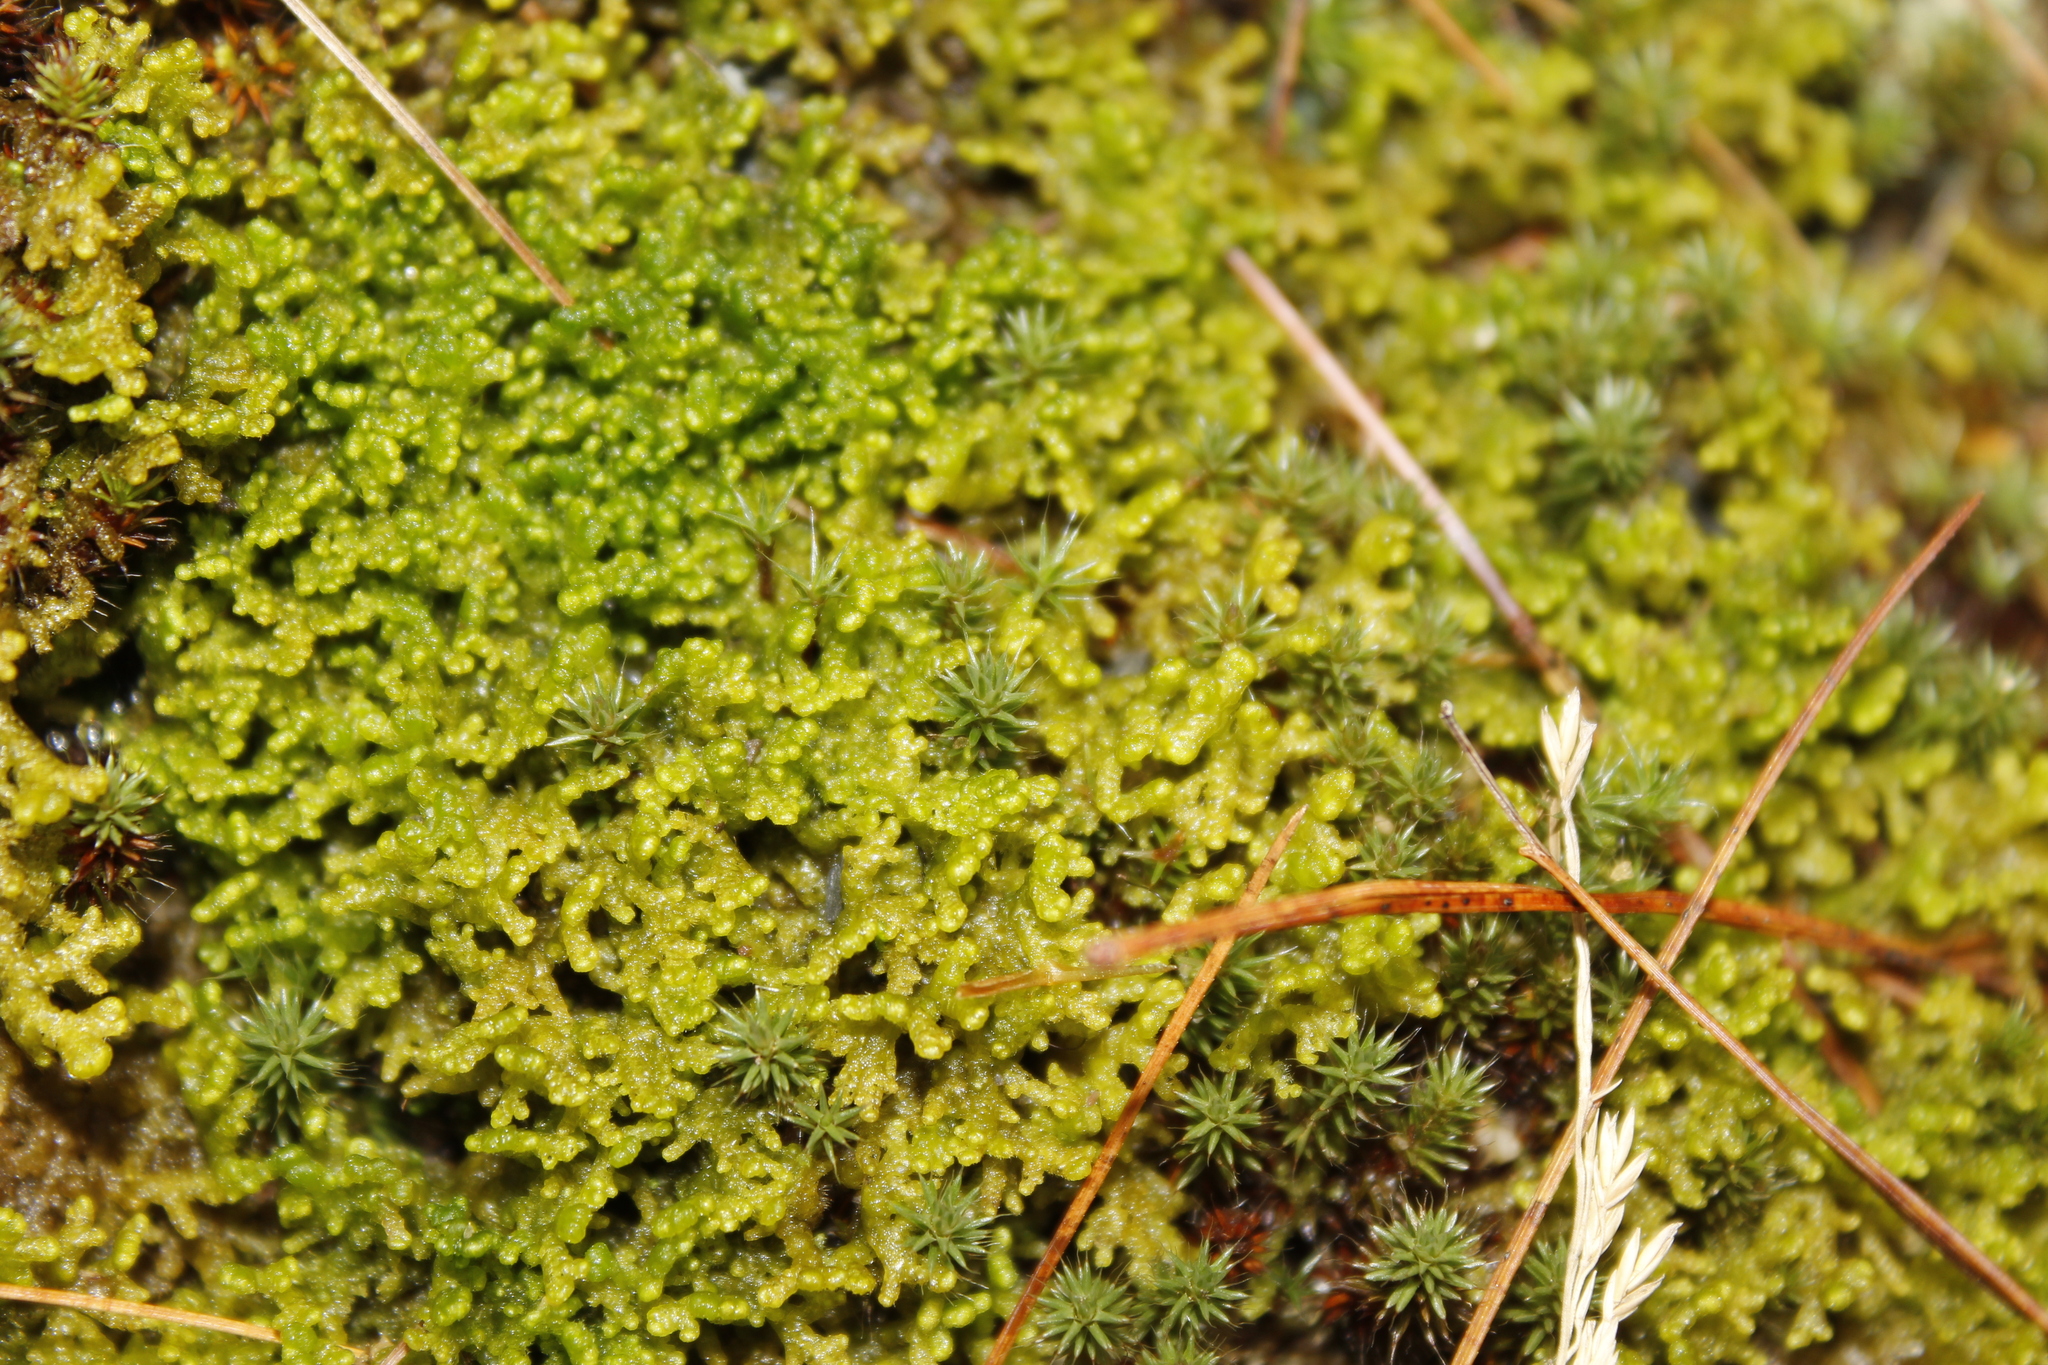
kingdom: Plantae
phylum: Marchantiophyta
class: Jungermanniopsida
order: Ptilidiales
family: Ptilidiaceae
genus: Ptilidium
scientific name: Ptilidium ciliare
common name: Ciliate fringewort
